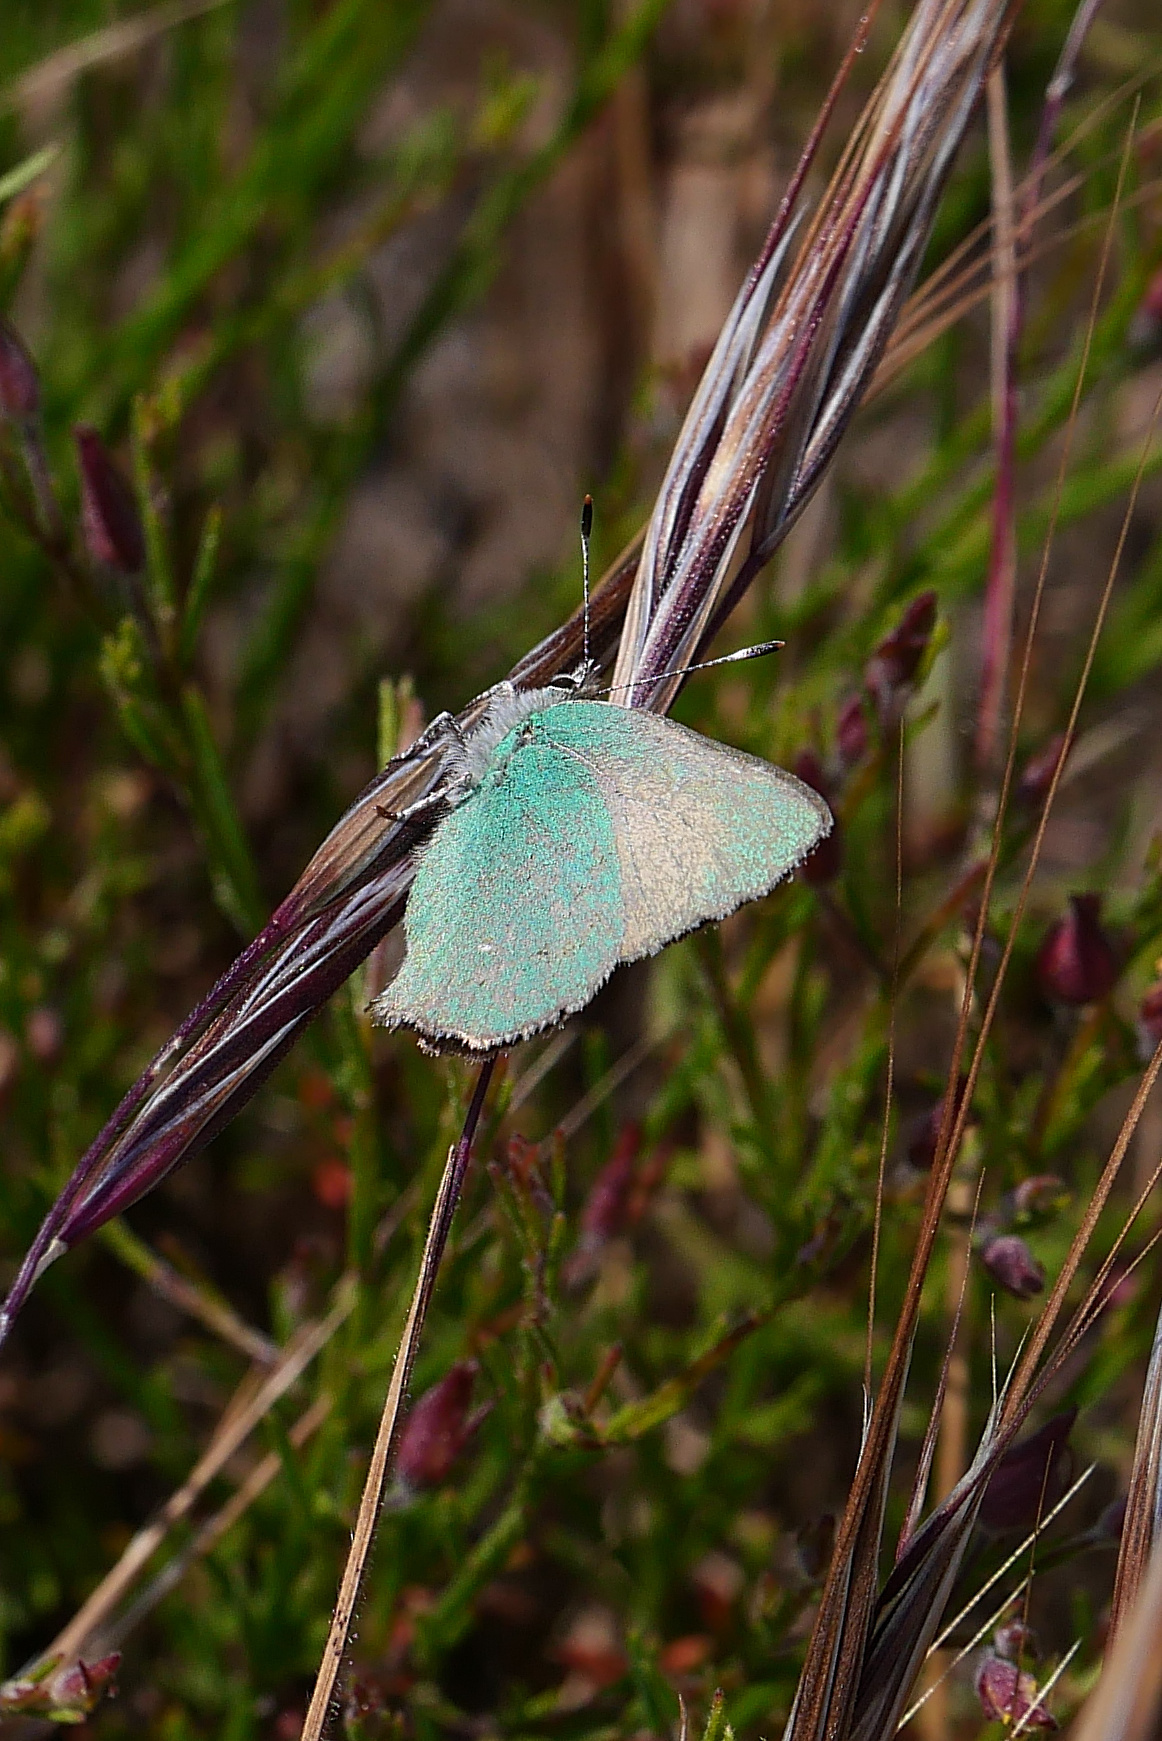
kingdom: Animalia
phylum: Arthropoda
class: Insecta
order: Lepidoptera
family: Lycaenidae
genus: Callophrys
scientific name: Callophrys dumetorum
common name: Bramble hairstreak
